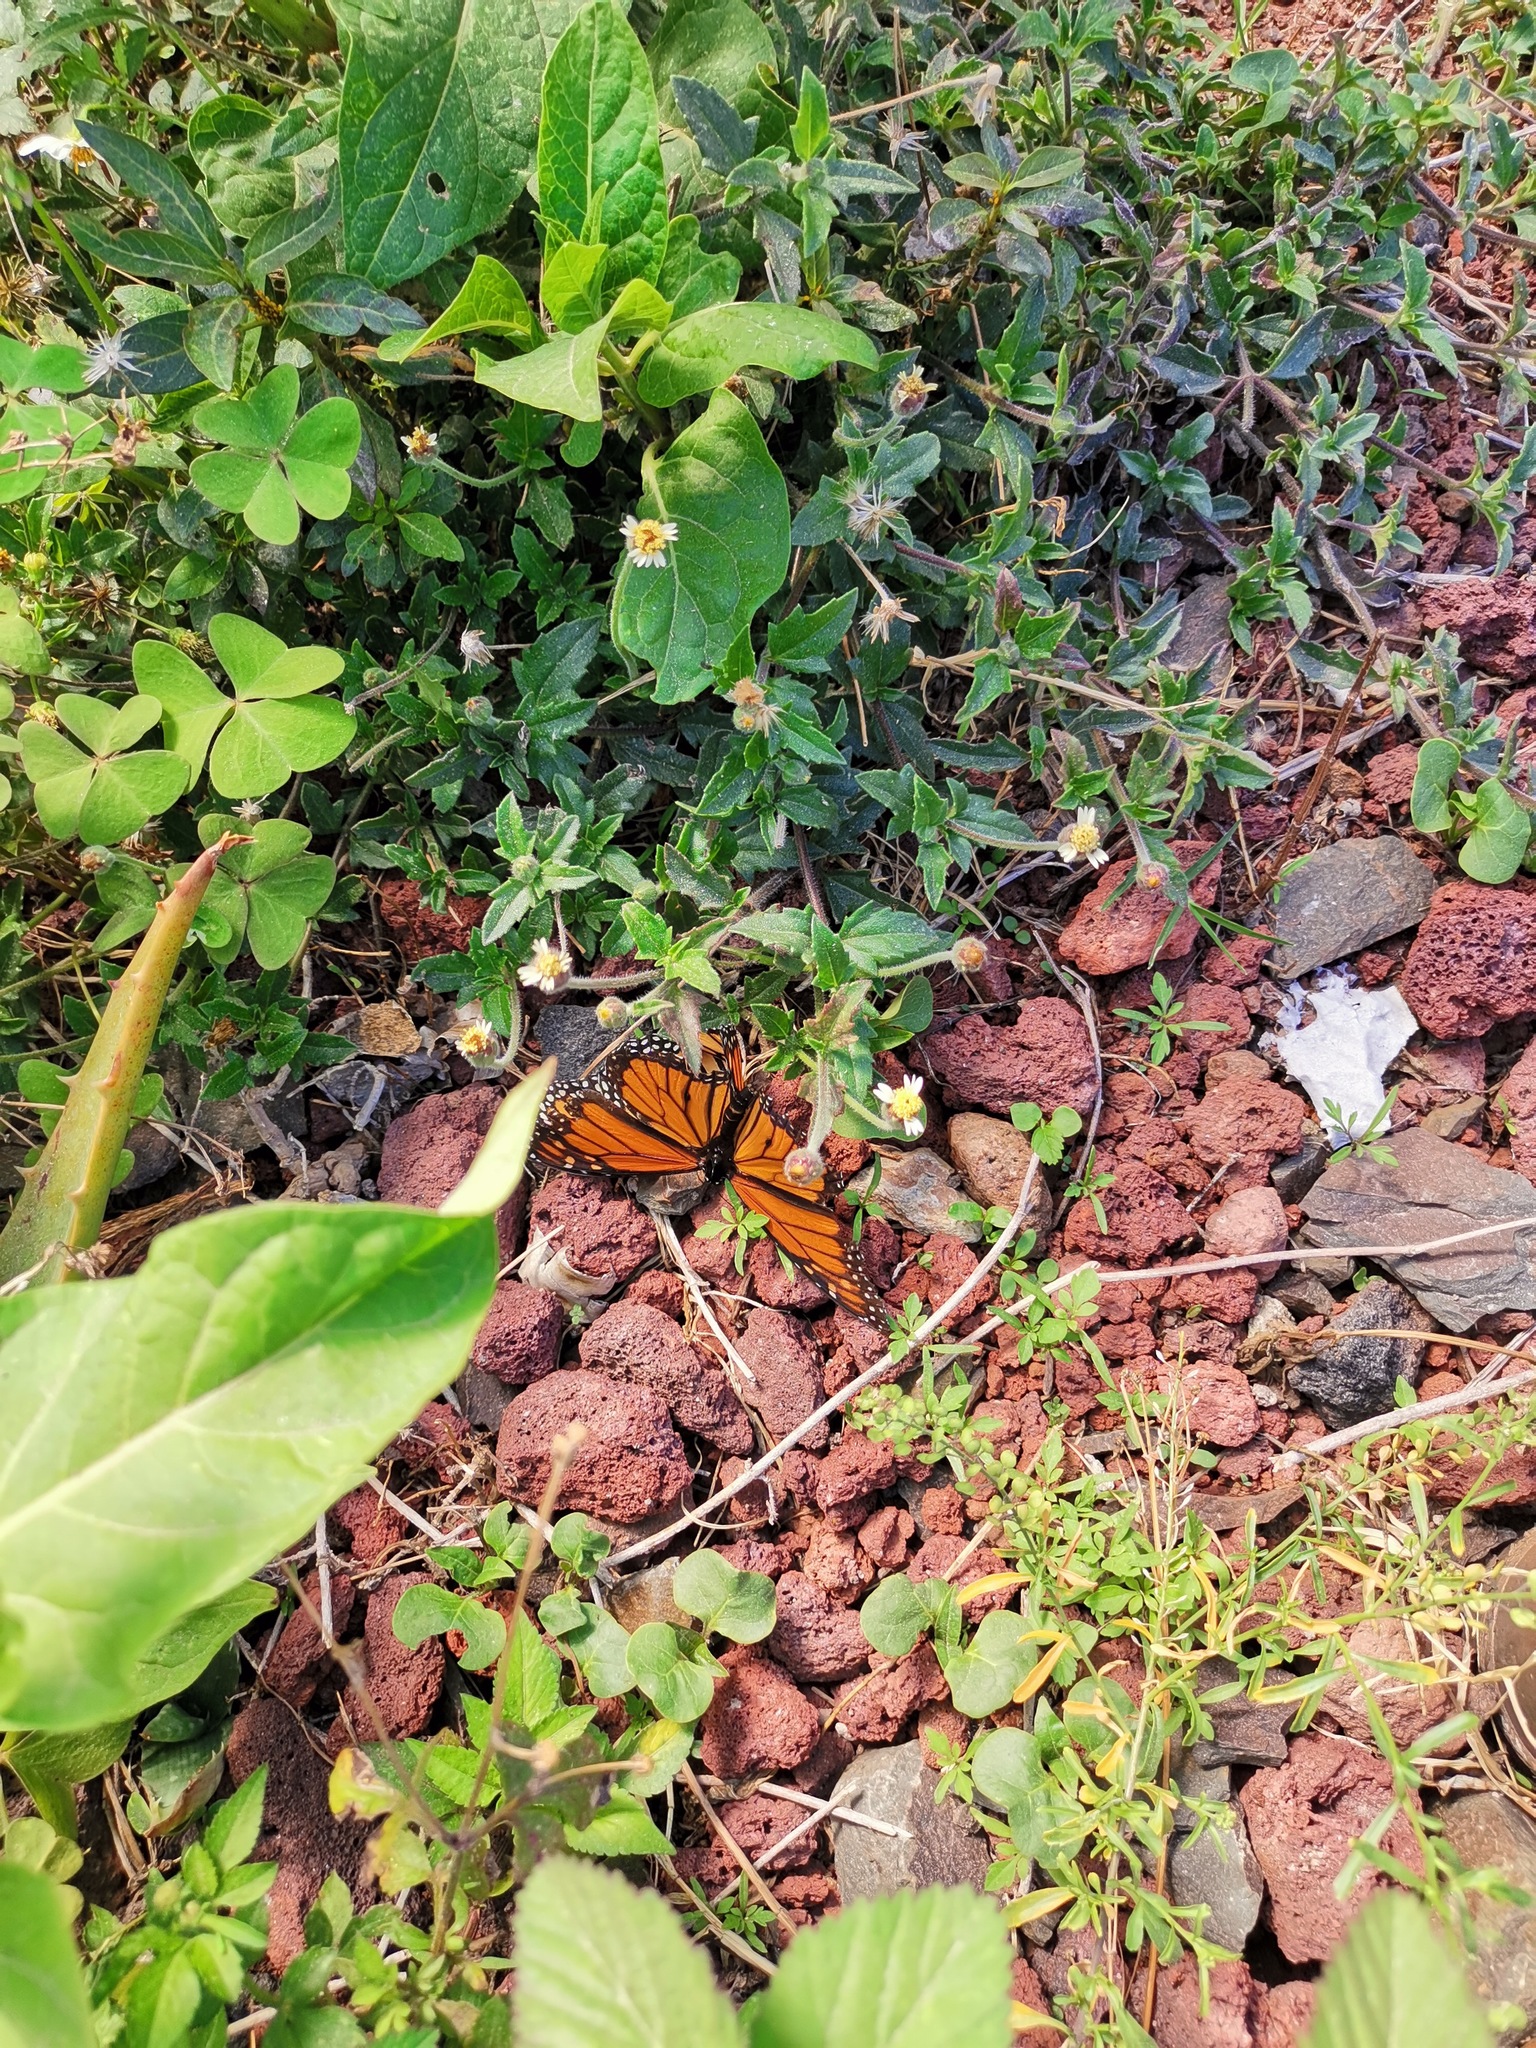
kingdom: Animalia
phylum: Arthropoda
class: Insecta
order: Lepidoptera
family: Nymphalidae
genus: Danaus
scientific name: Danaus plexippus
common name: Monarch
